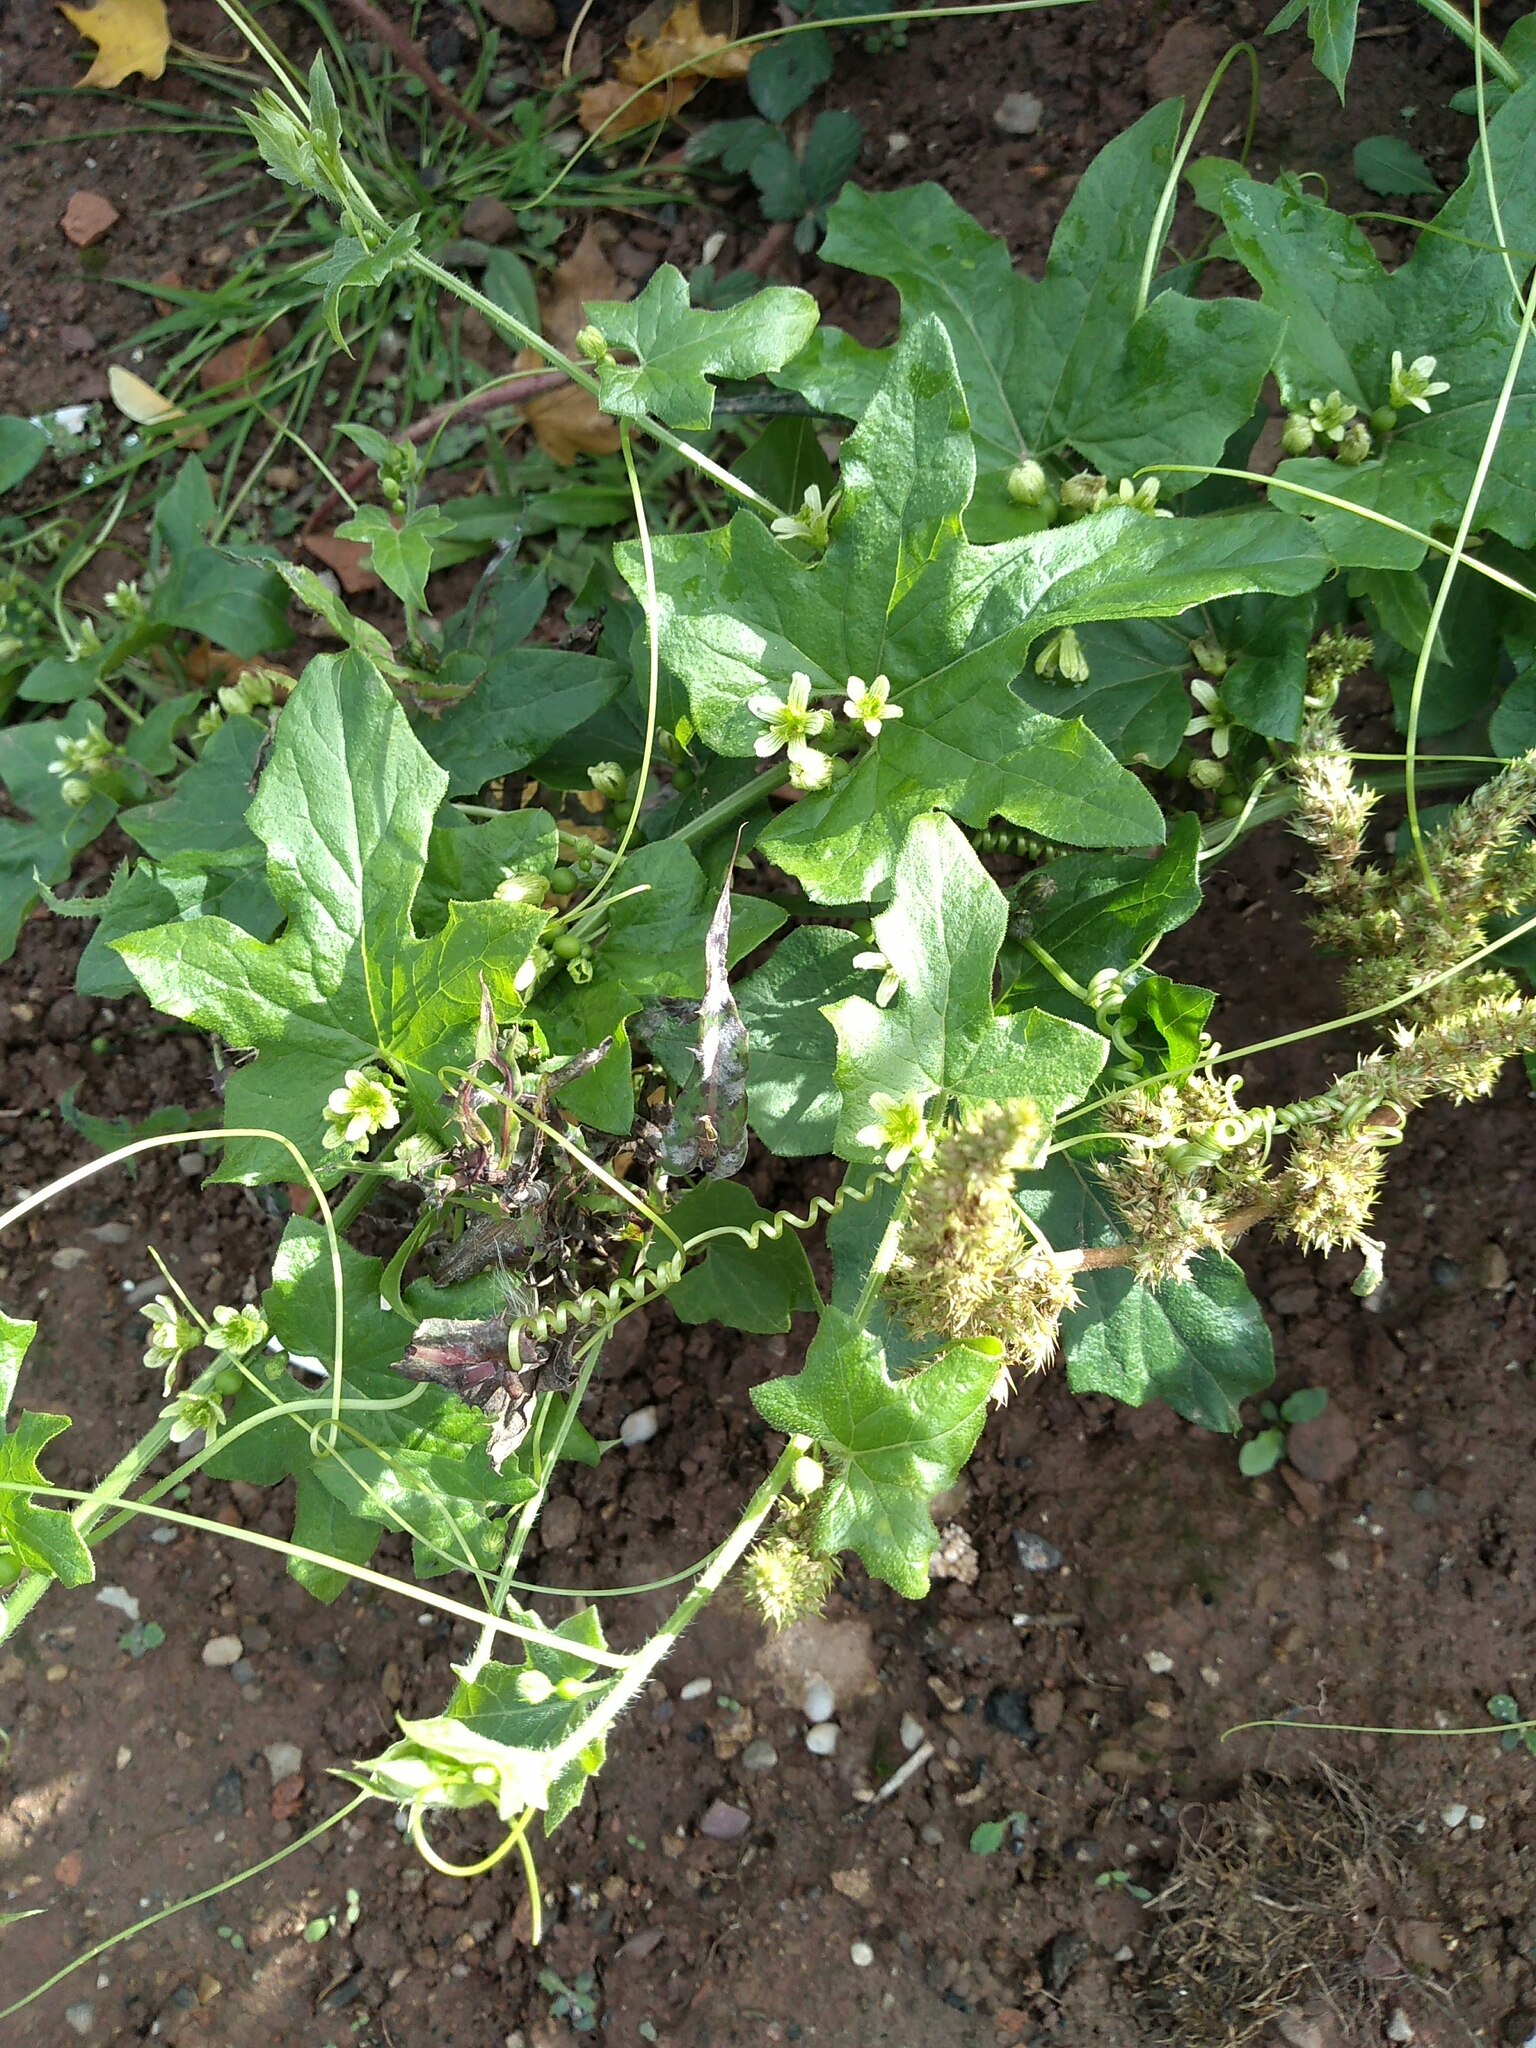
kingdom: Plantae
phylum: Tracheophyta
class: Magnoliopsida
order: Cucurbitales
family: Cucurbitaceae
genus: Bryonia
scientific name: Bryonia cretica
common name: Cretan bryony
